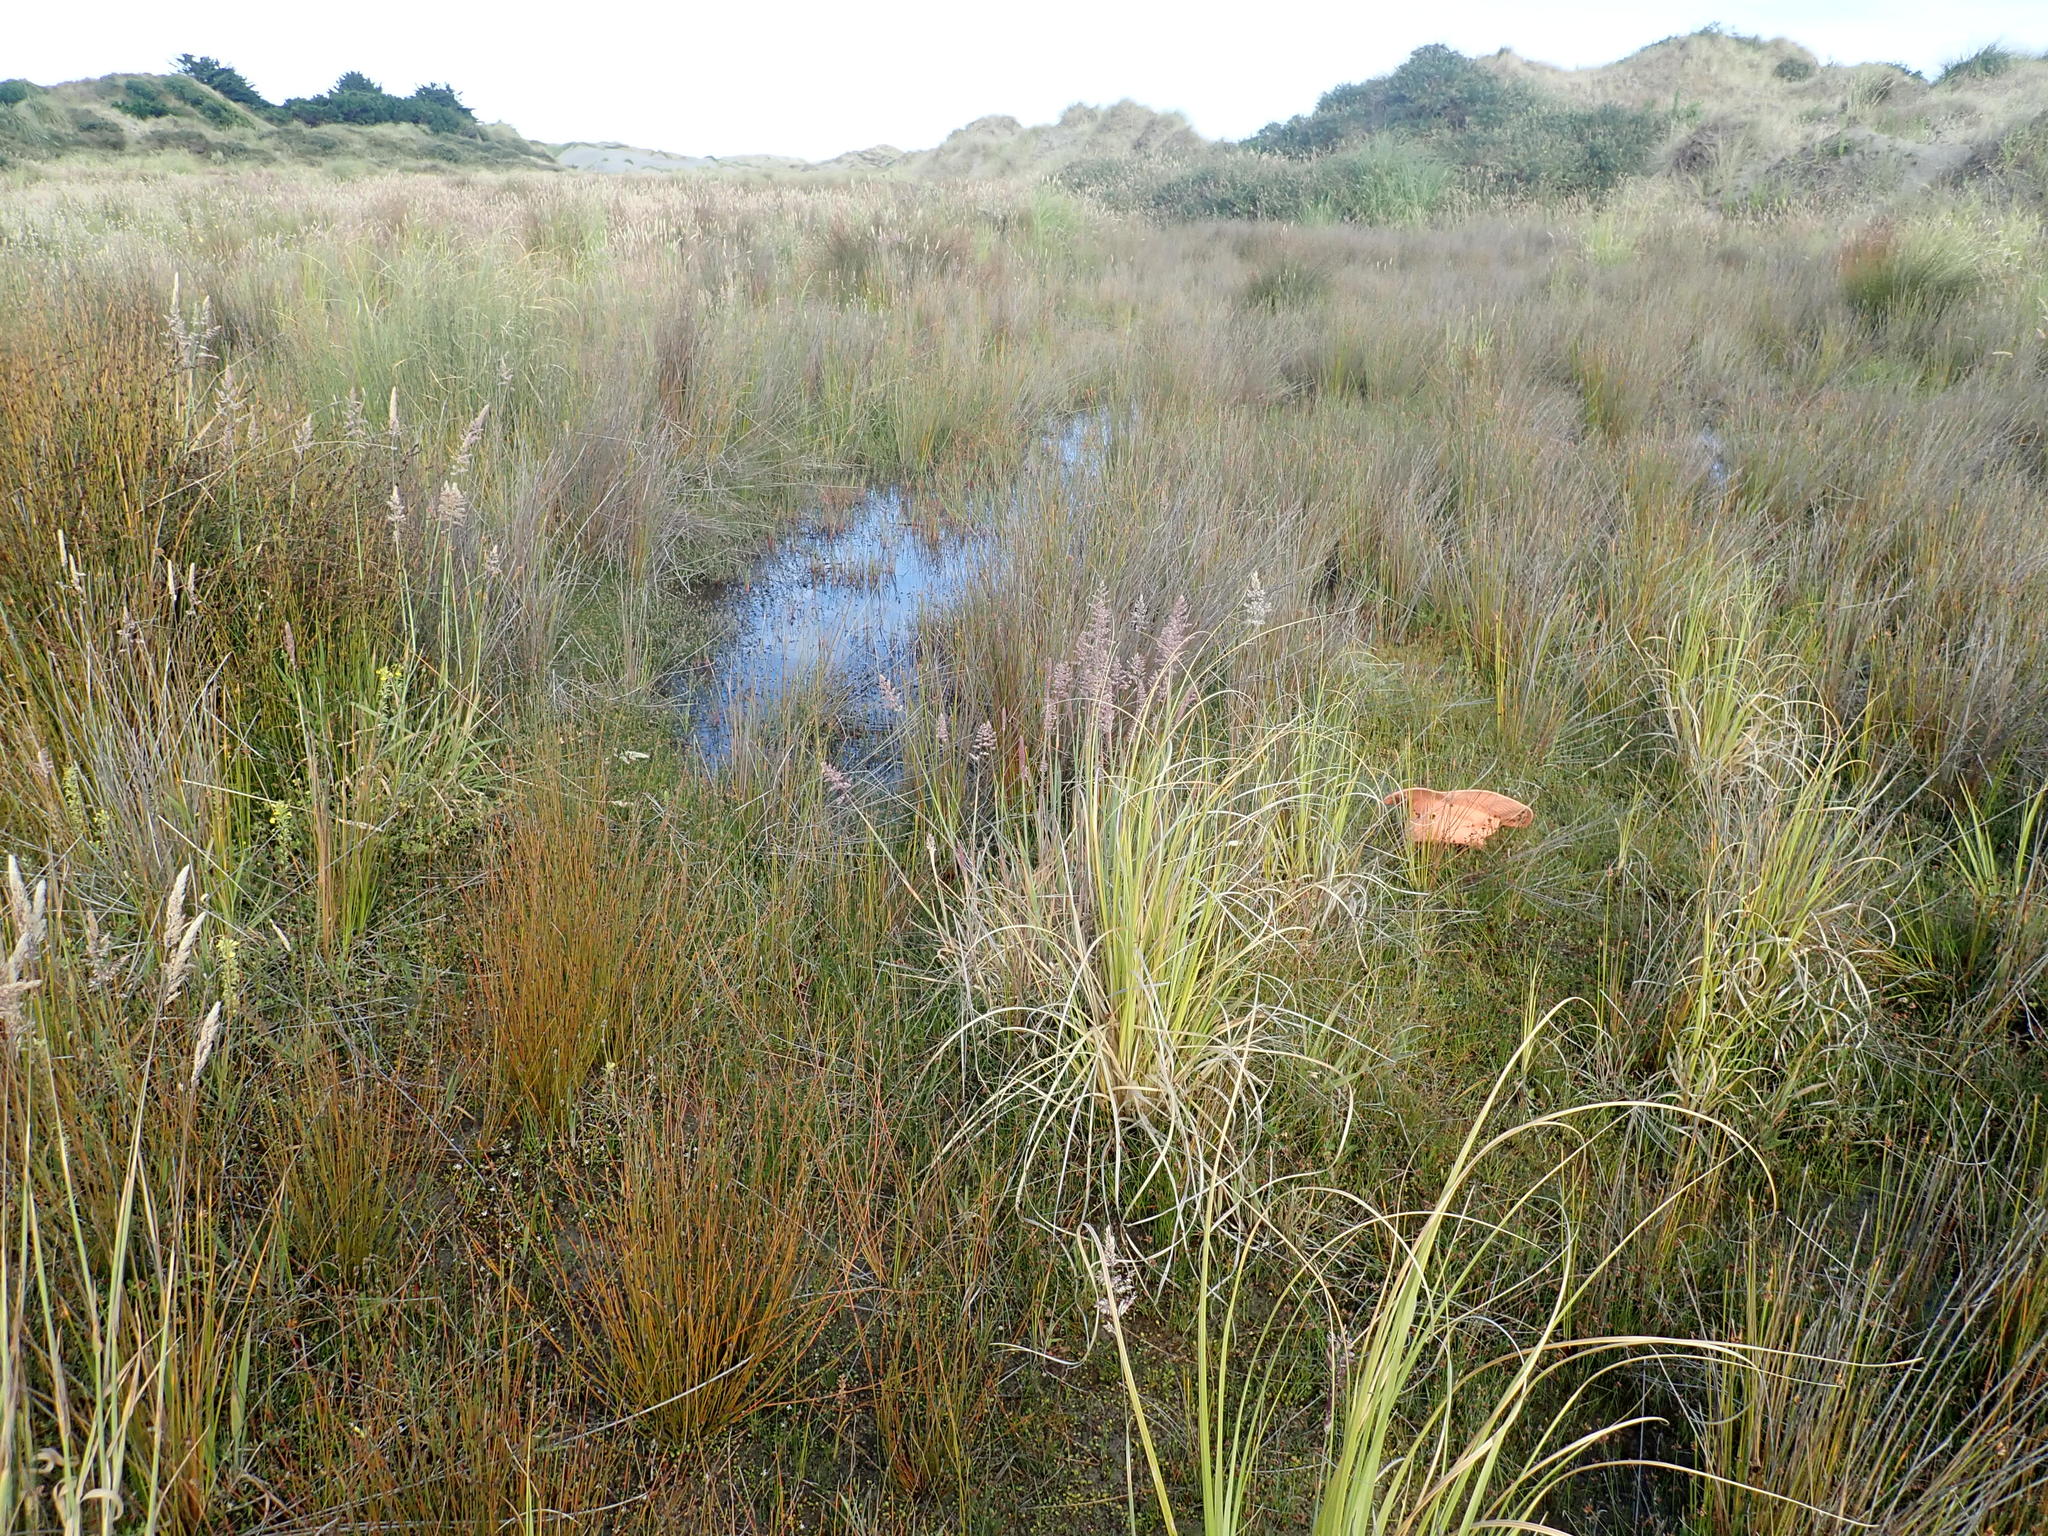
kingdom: Plantae
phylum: Tracheophyta
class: Magnoliopsida
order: Asterales
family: Goodeniaceae
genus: Goodenia
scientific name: Goodenia heenanii
